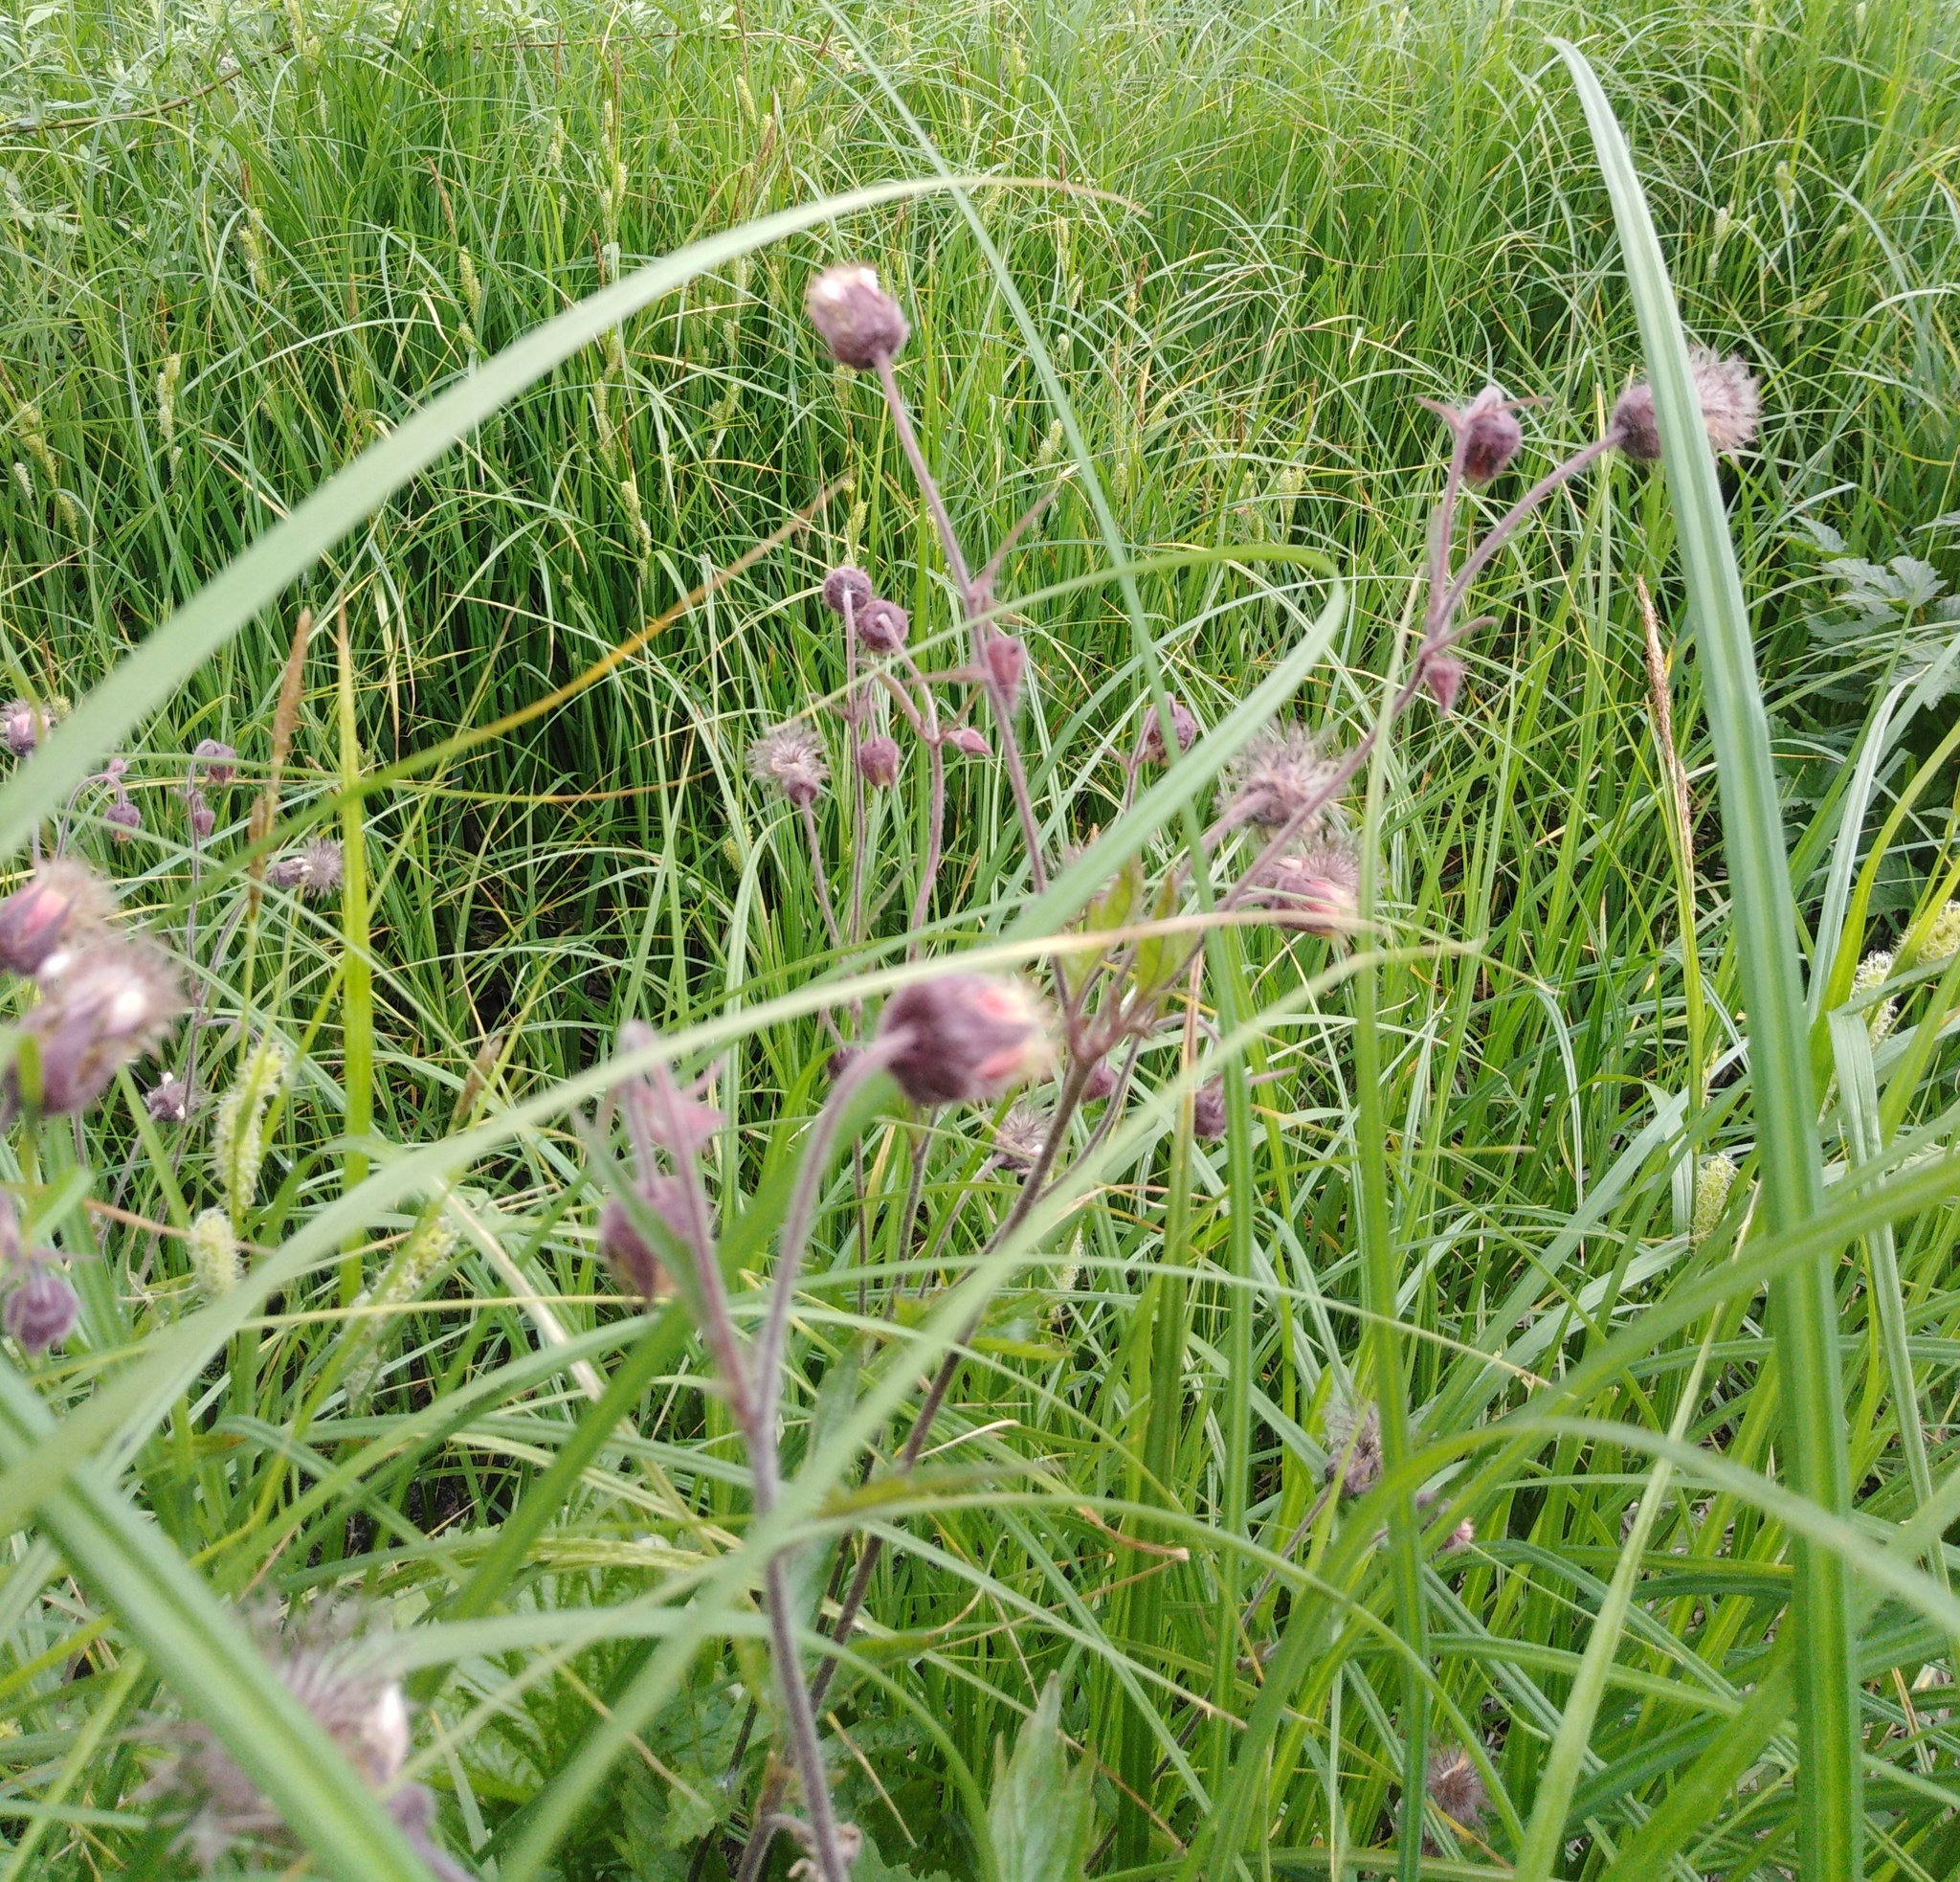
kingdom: Plantae
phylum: Tracheophyta
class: Magnoliopsida
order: Rosales
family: Rosaceae
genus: Geum
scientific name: Geum rivale
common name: Water avens
